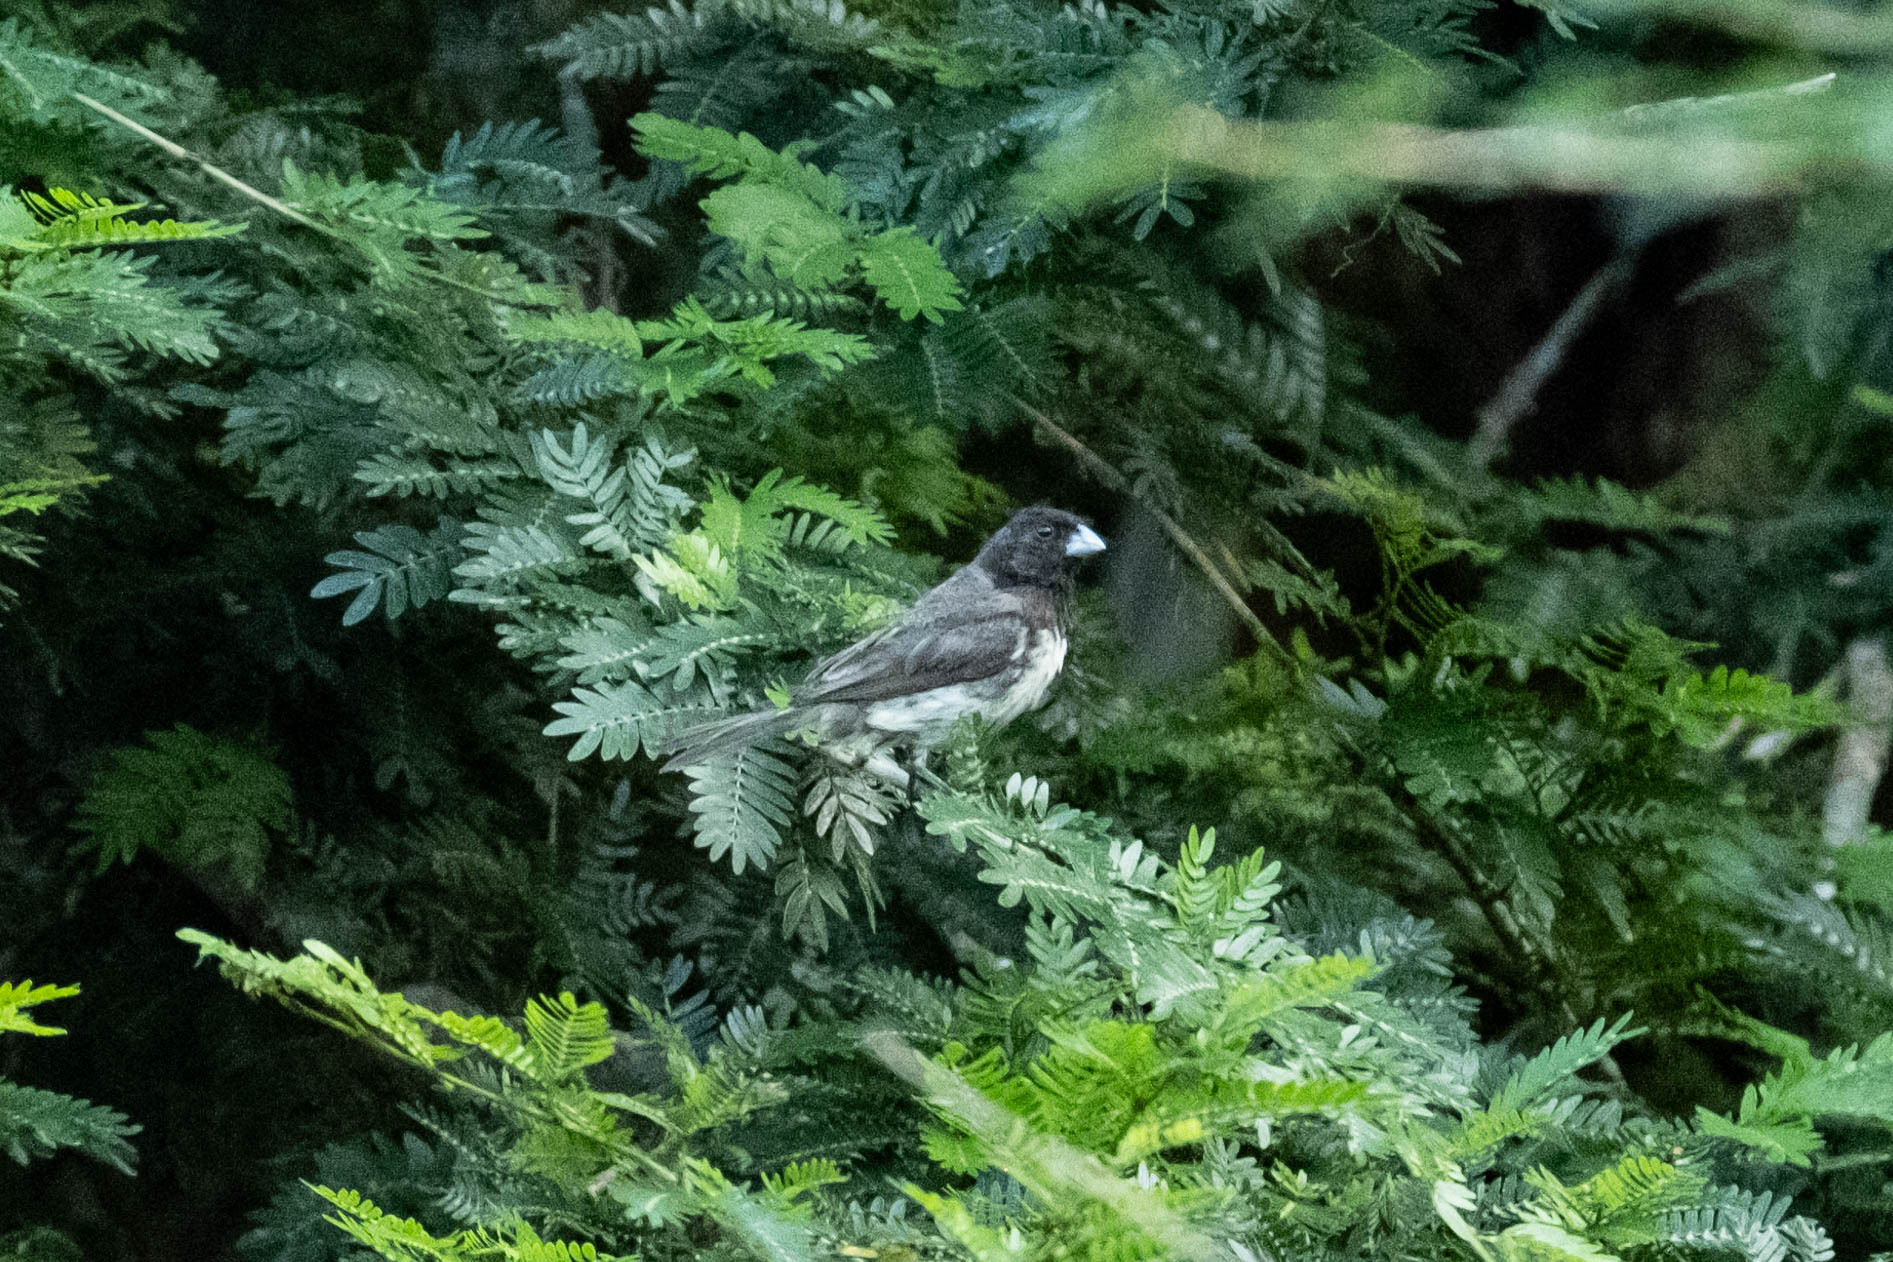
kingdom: Animalia
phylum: Chordata
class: Aves
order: Passeriformes
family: Thraupidae
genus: Sporophila
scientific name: Sporophila nigricollis
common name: Yellow-bellied seedeater
